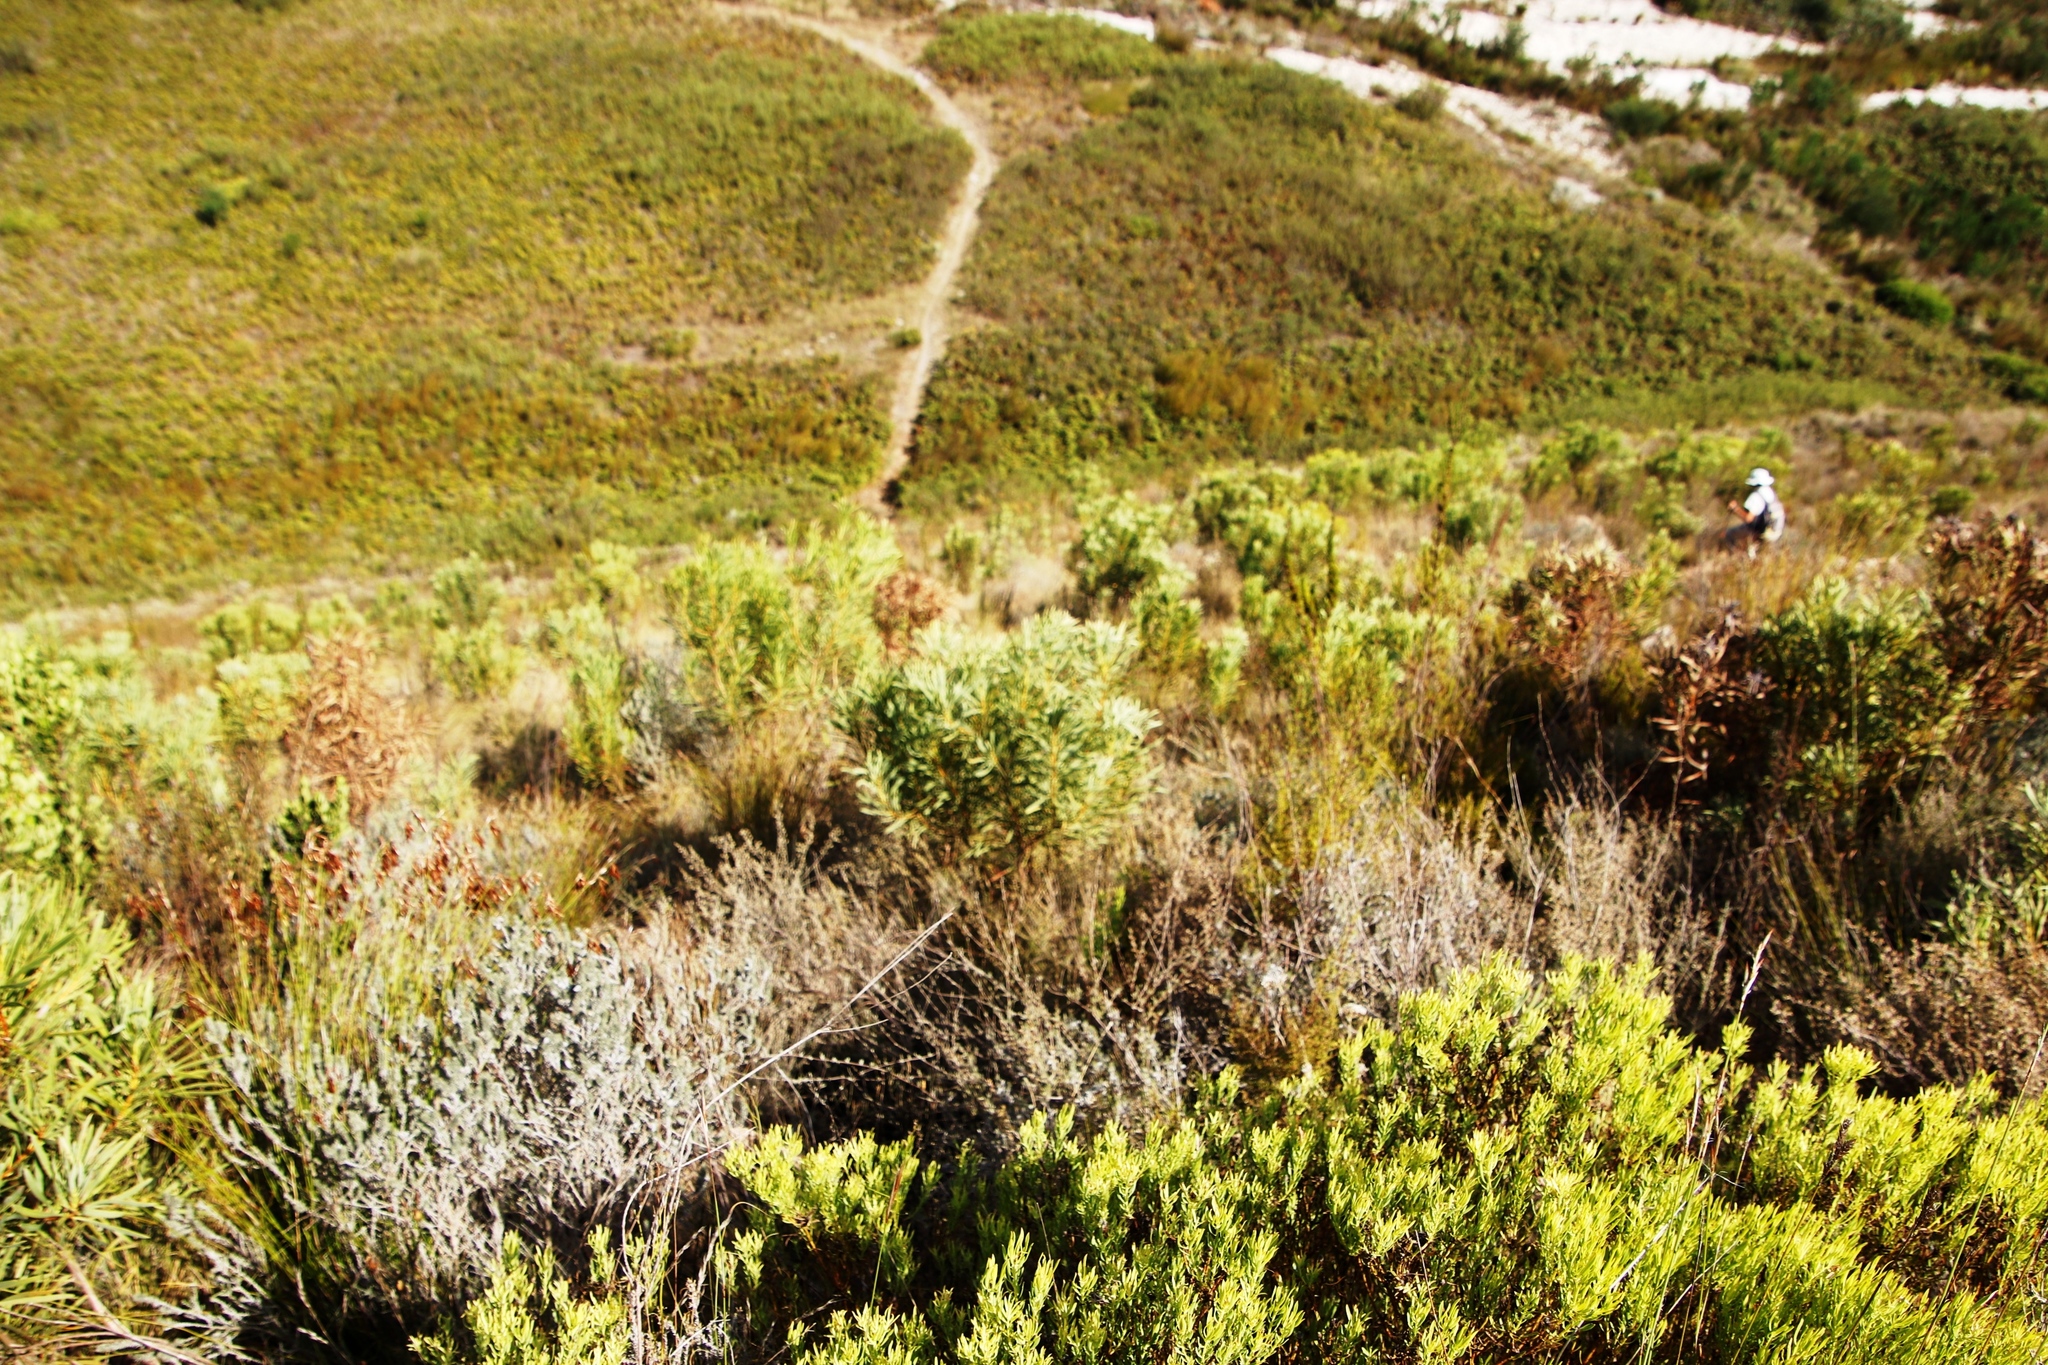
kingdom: Plantae
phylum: Tracheophyta
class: Magnoliopsida
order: Proteales
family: Proteaceae
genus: Protea
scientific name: Protea repens
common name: Sugarbush
